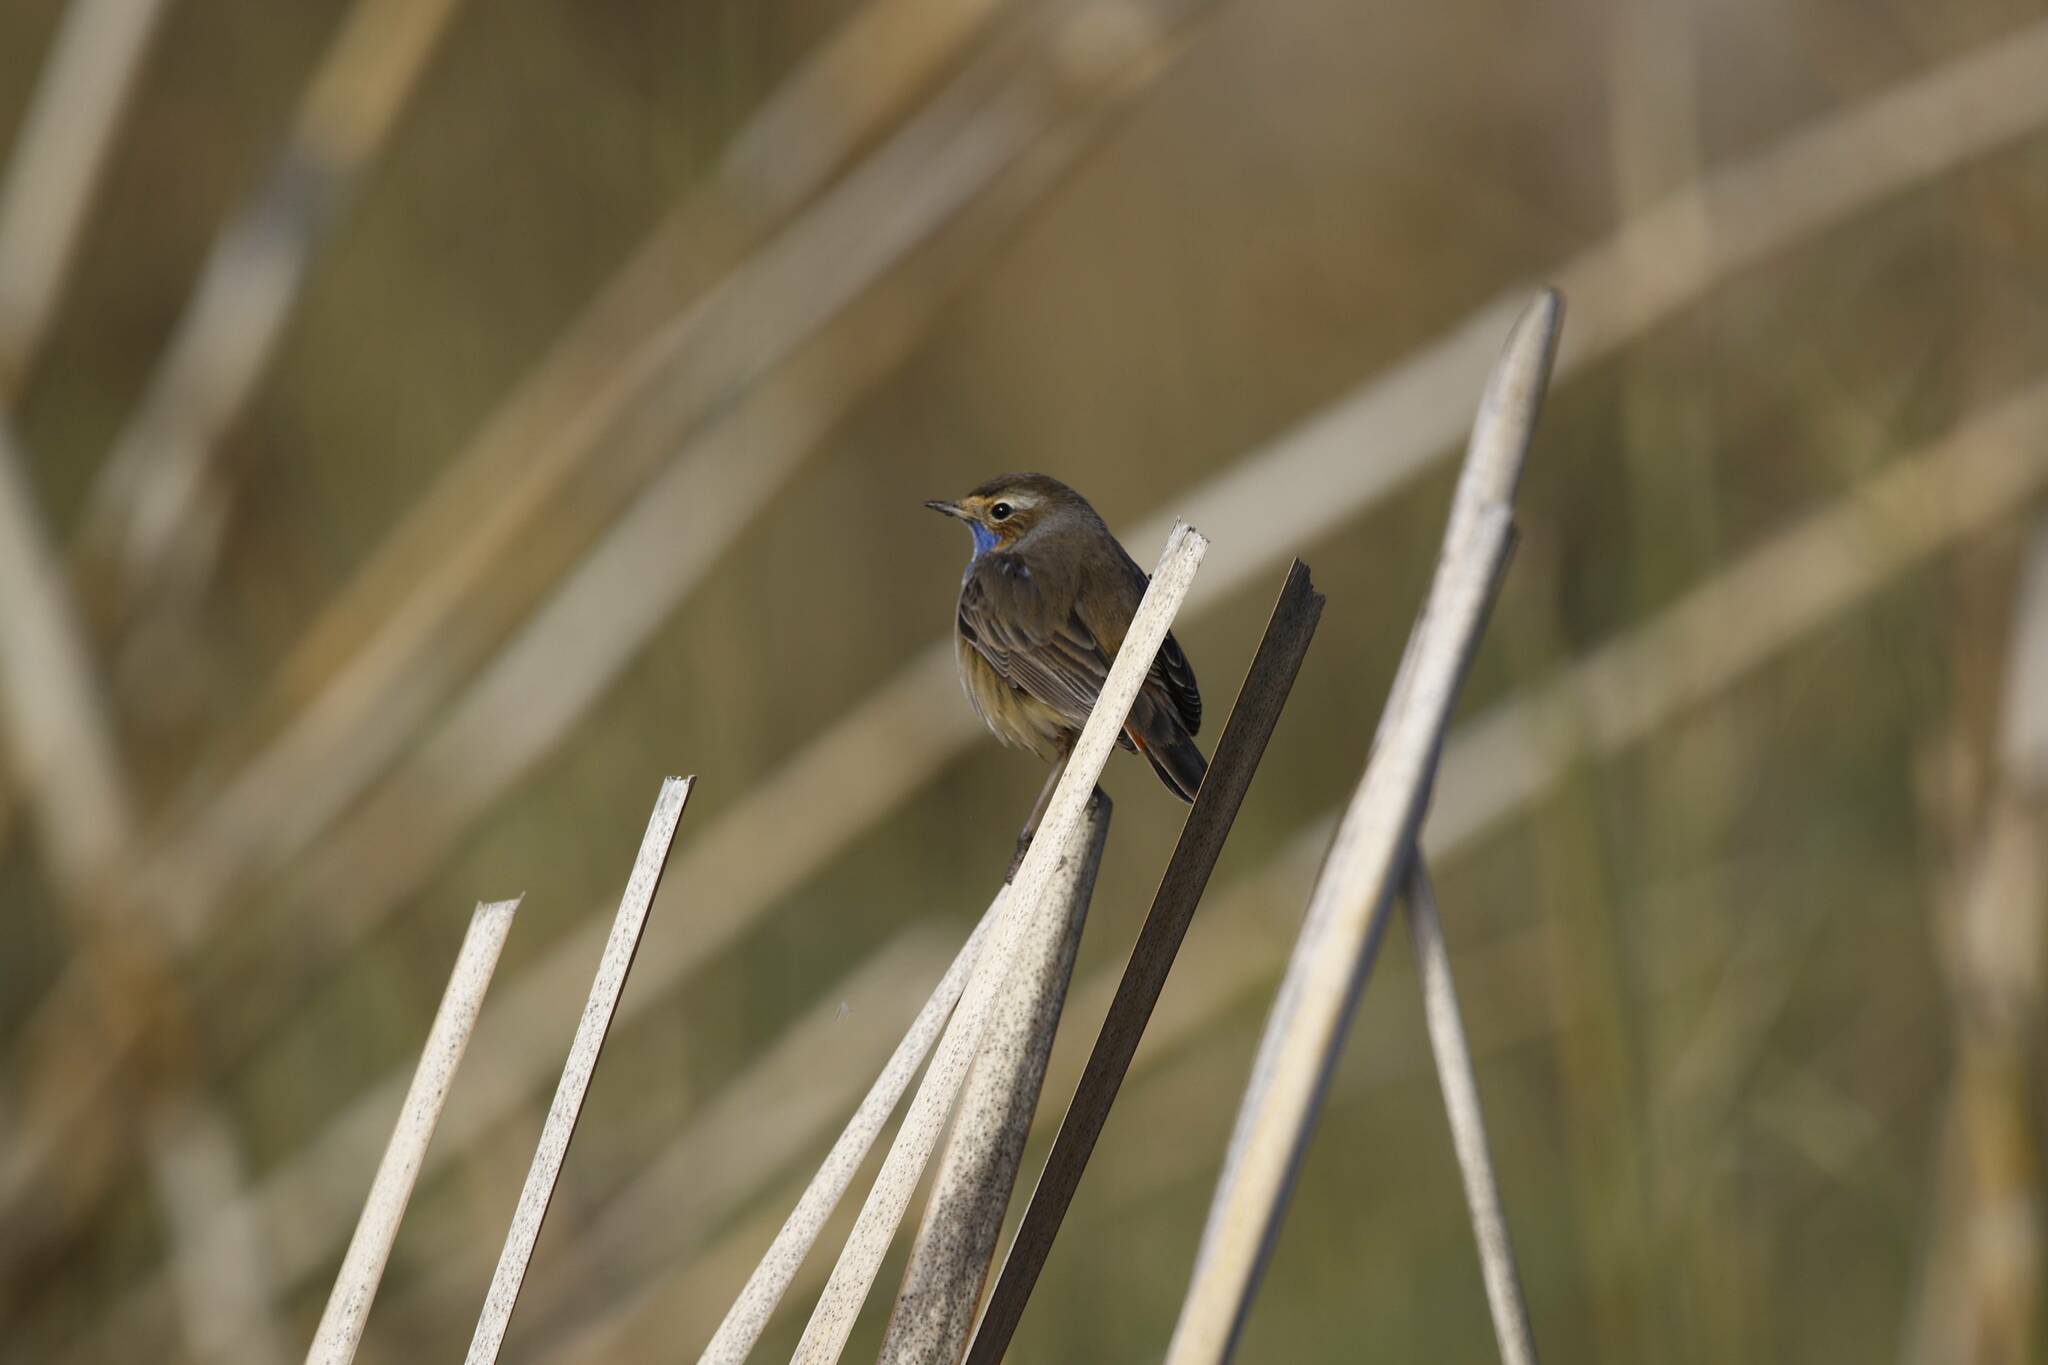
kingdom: Animalia
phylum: Chordata
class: Aves
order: Passeriformes
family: Muscicapidae
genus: Luscinia
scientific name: Luscinia svecica
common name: Bluethroat
